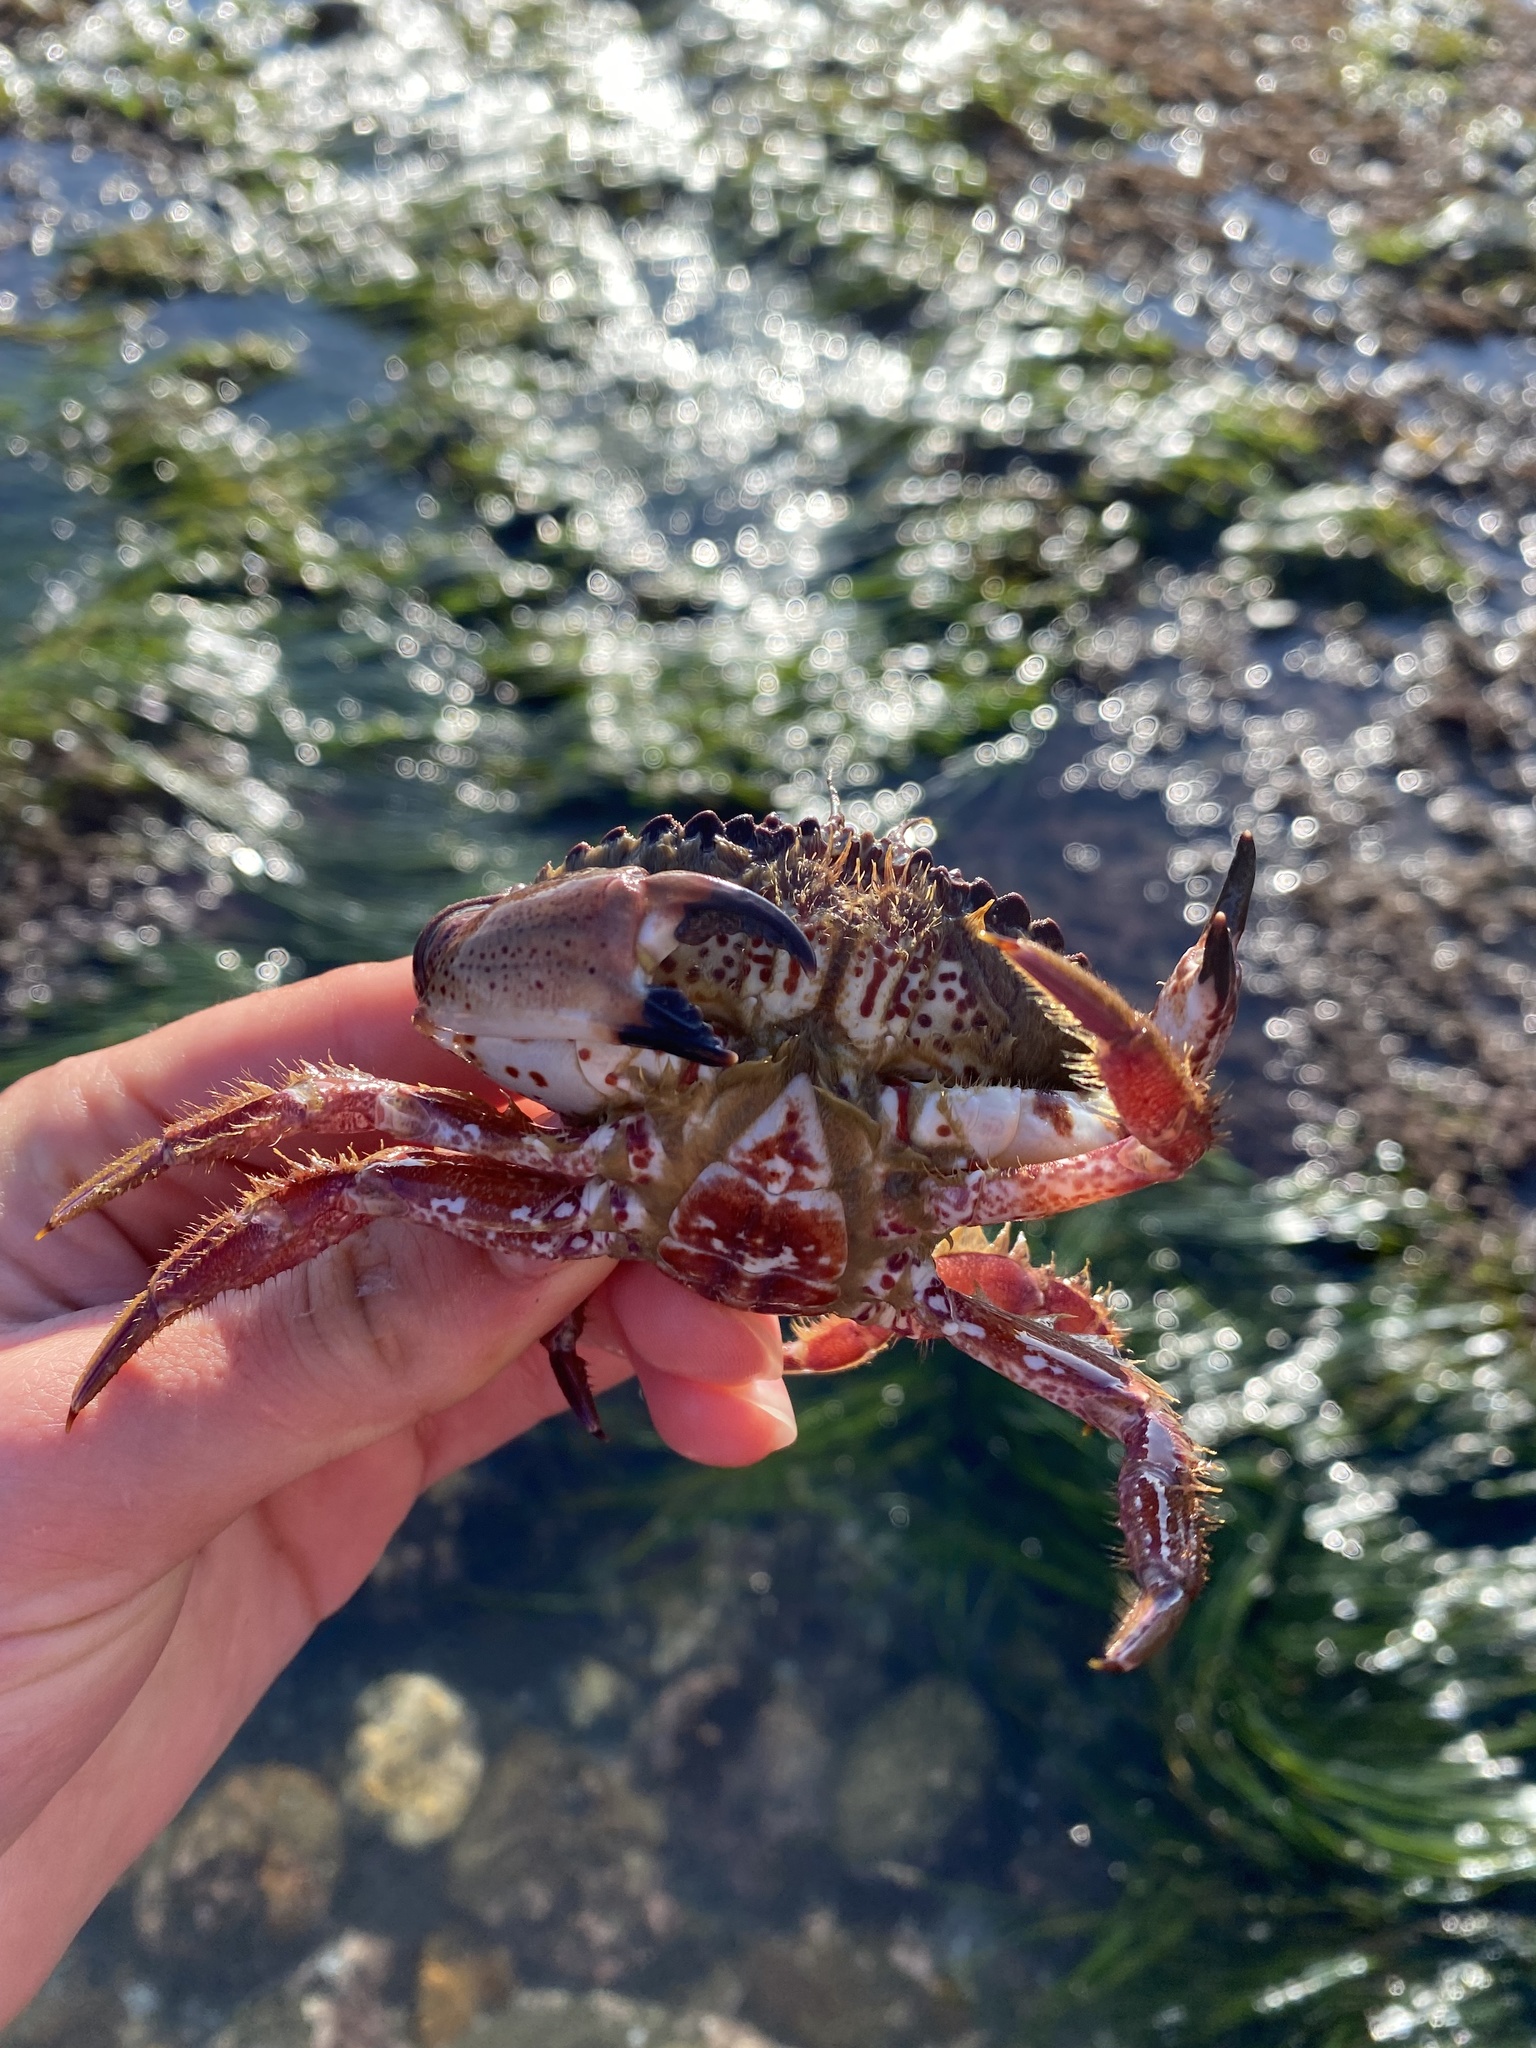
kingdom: Animalia
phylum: Arthropoda
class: Malacostraca
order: Decapoda
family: Cancridae
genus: Romaleon
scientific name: Romaleon antennarium
